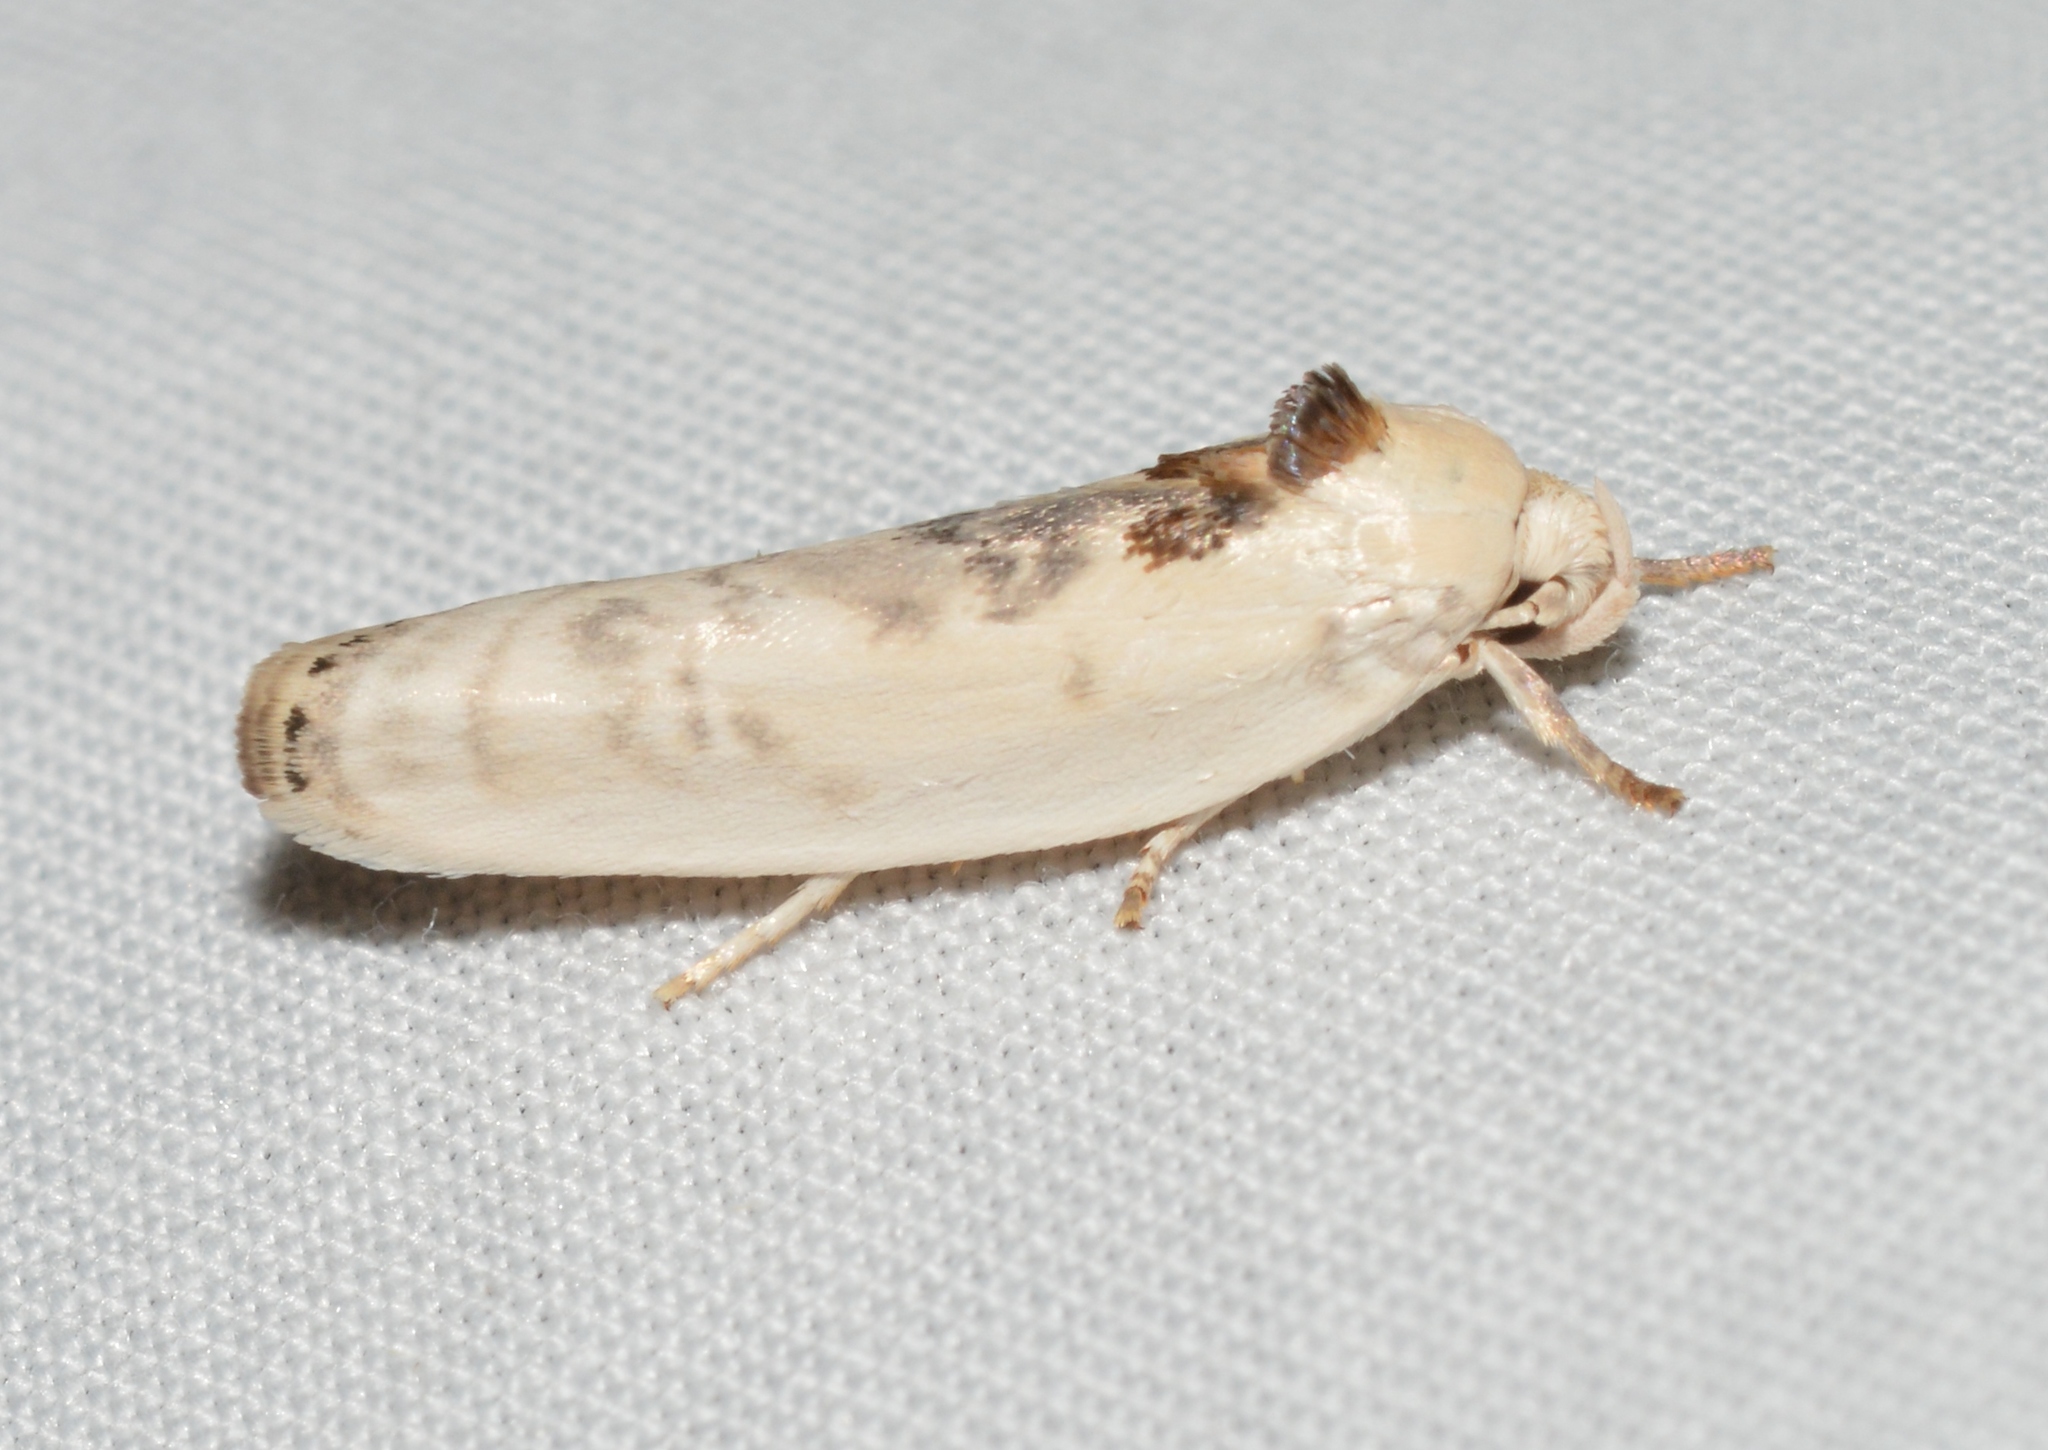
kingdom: Animalia
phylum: Arthropoda
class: Insecta
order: Lepidoptera
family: Depressariidae
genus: Antaeotricha
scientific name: Antaeotricha leucillana
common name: Pale gray bird-dropping moth
